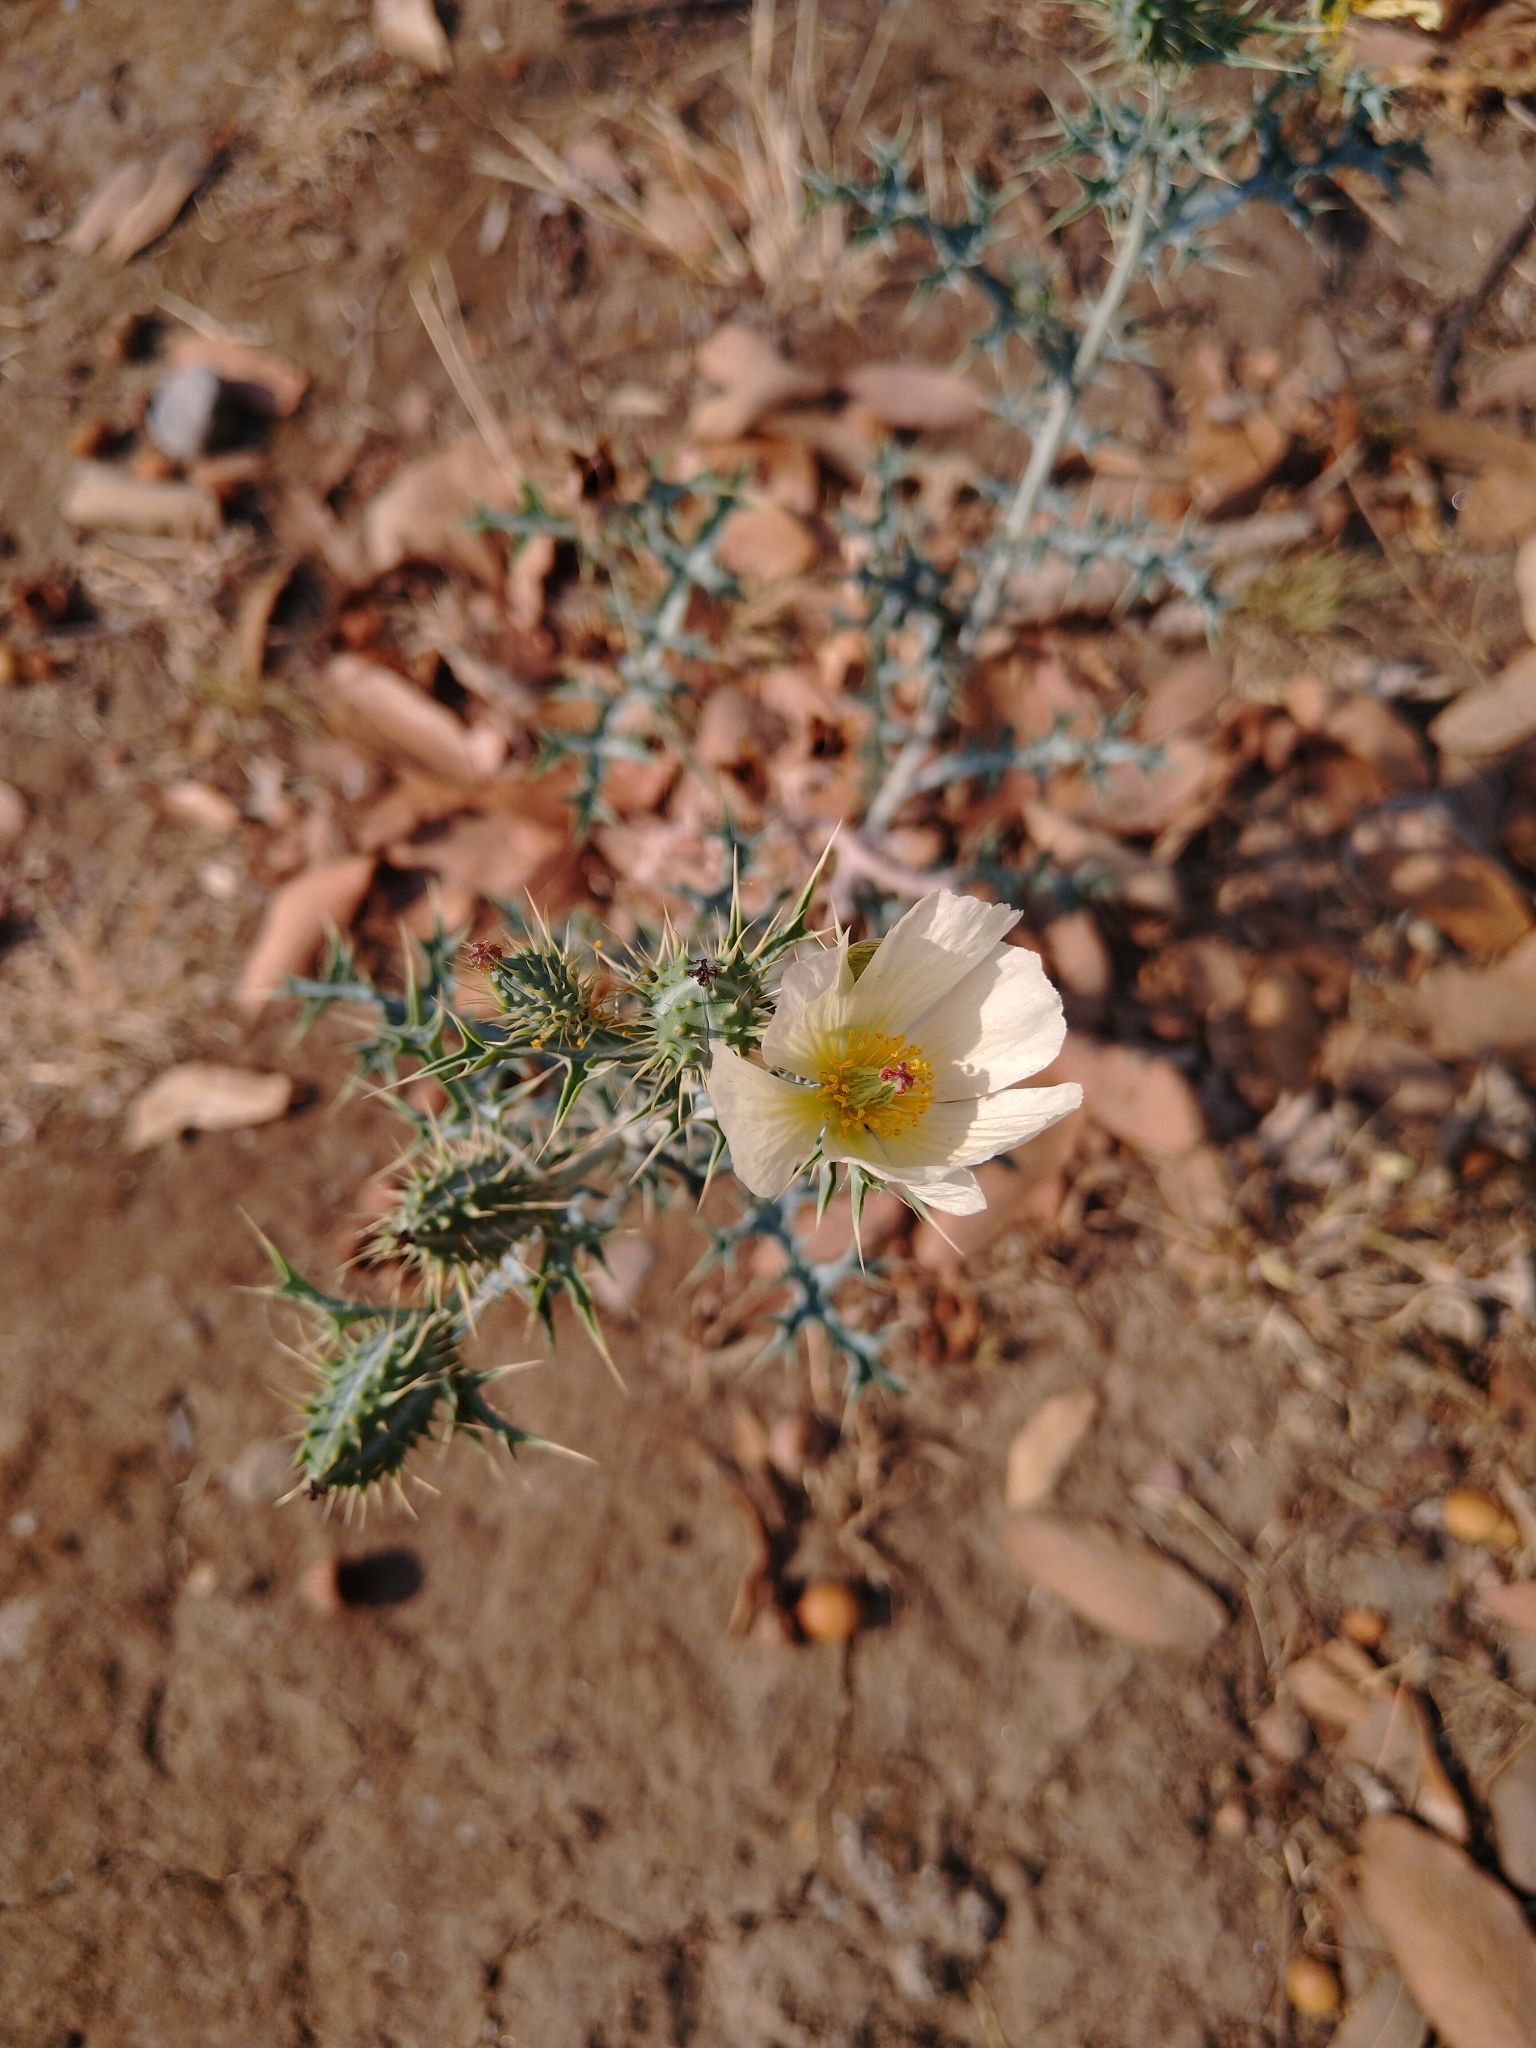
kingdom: Plantae
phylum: Tracheophyta
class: Magnoliopsida
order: Ranunculales
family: Papaveraceae
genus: Argemone
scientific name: Argemone ochroleuca
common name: White-flower mexican-poppy
